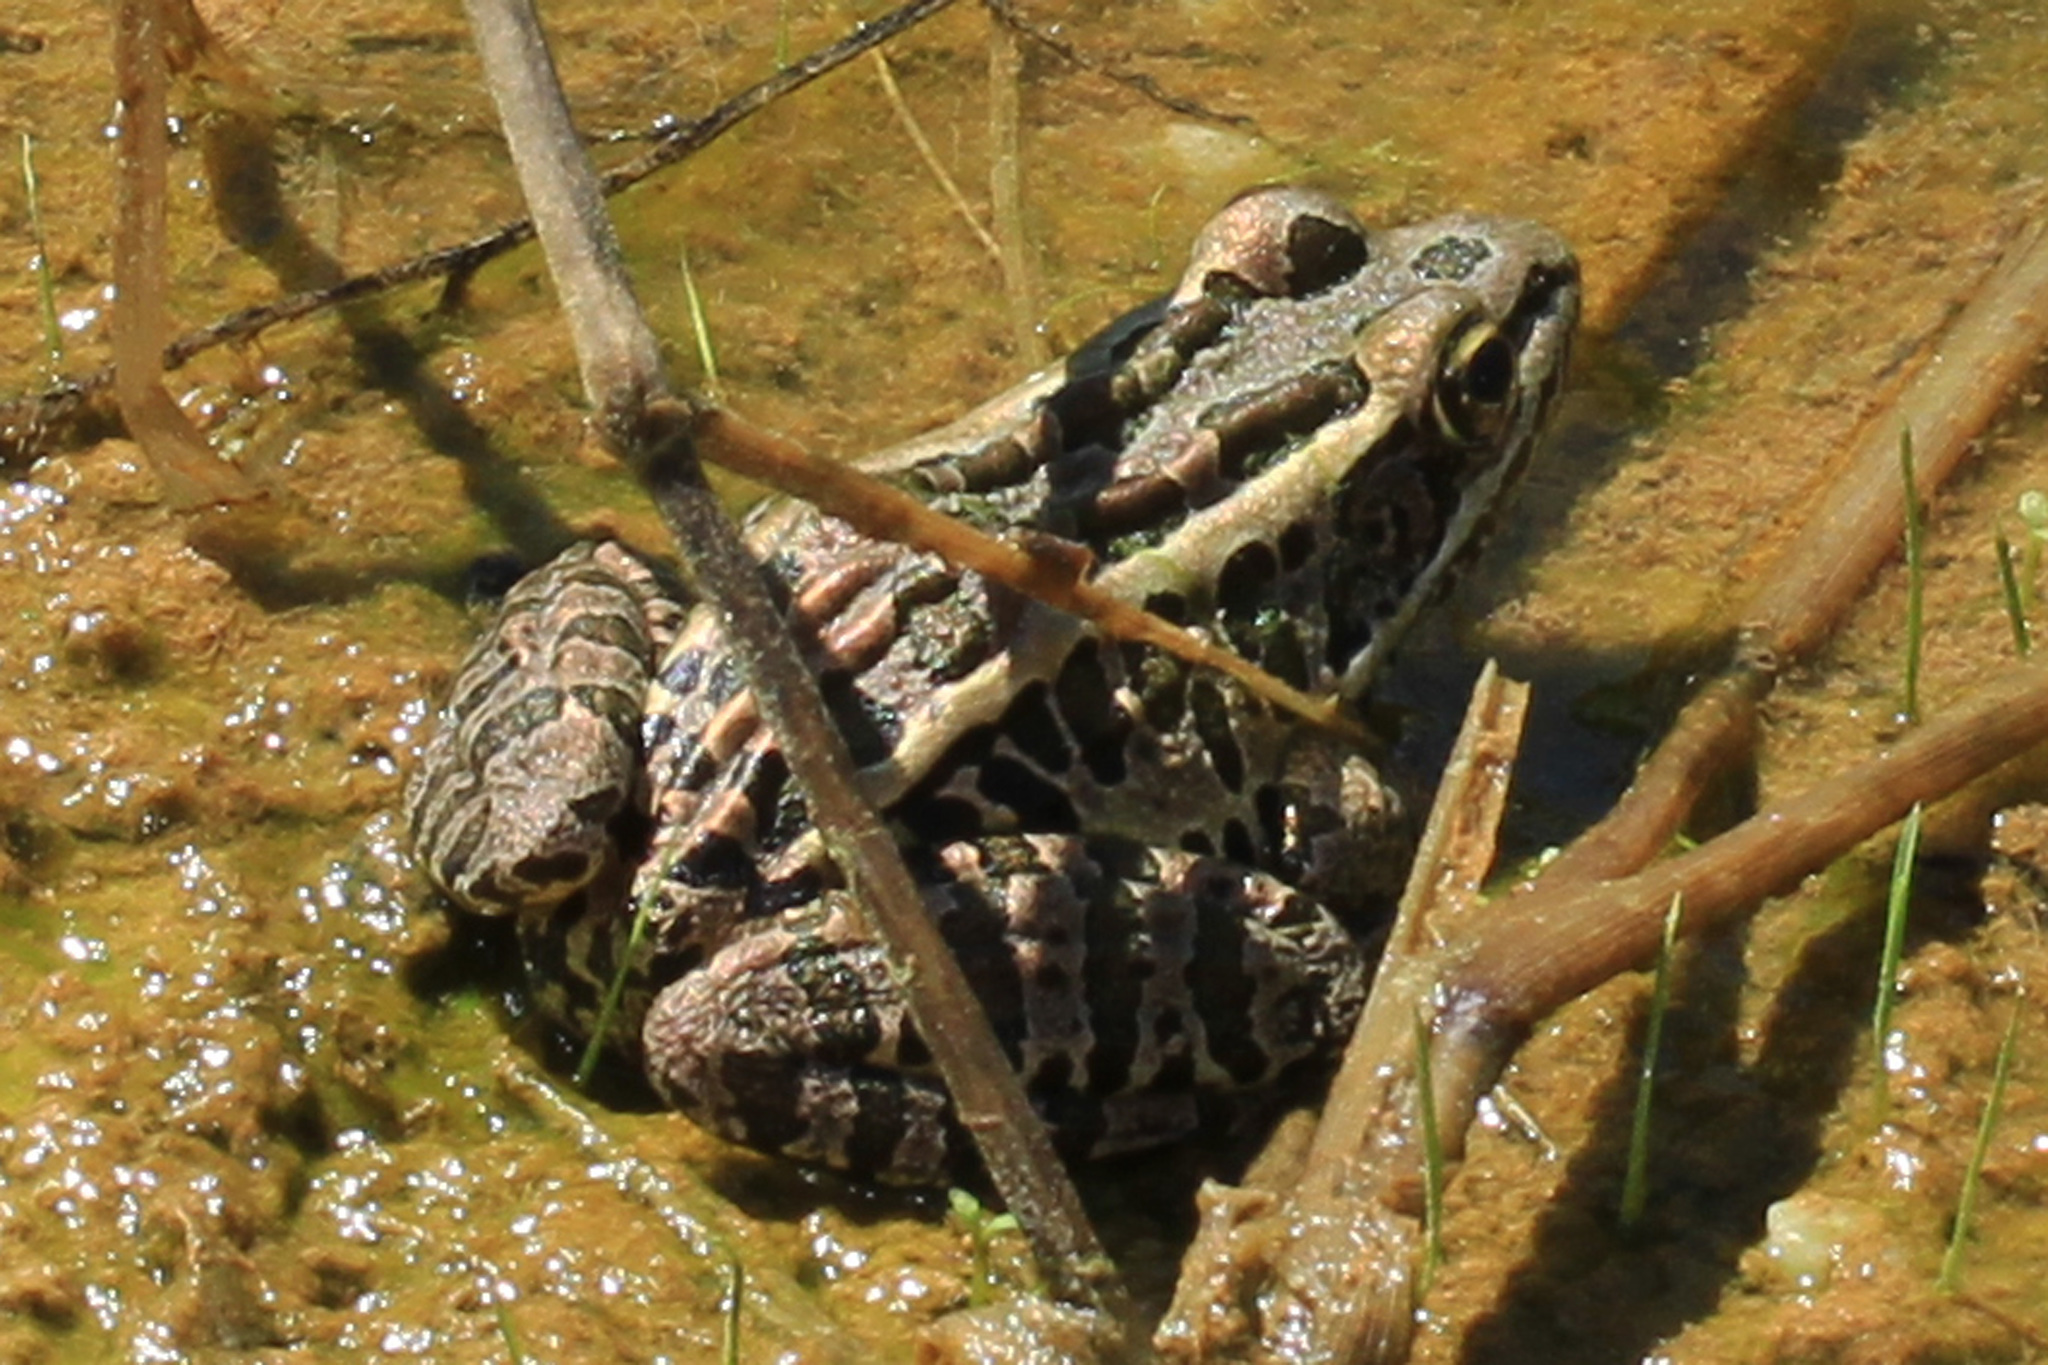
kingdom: Animalia
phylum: Chordata
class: Amphibia
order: Anura
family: Ranidae
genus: Lithobates
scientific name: Lithobates palustris
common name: Pickerel frog
